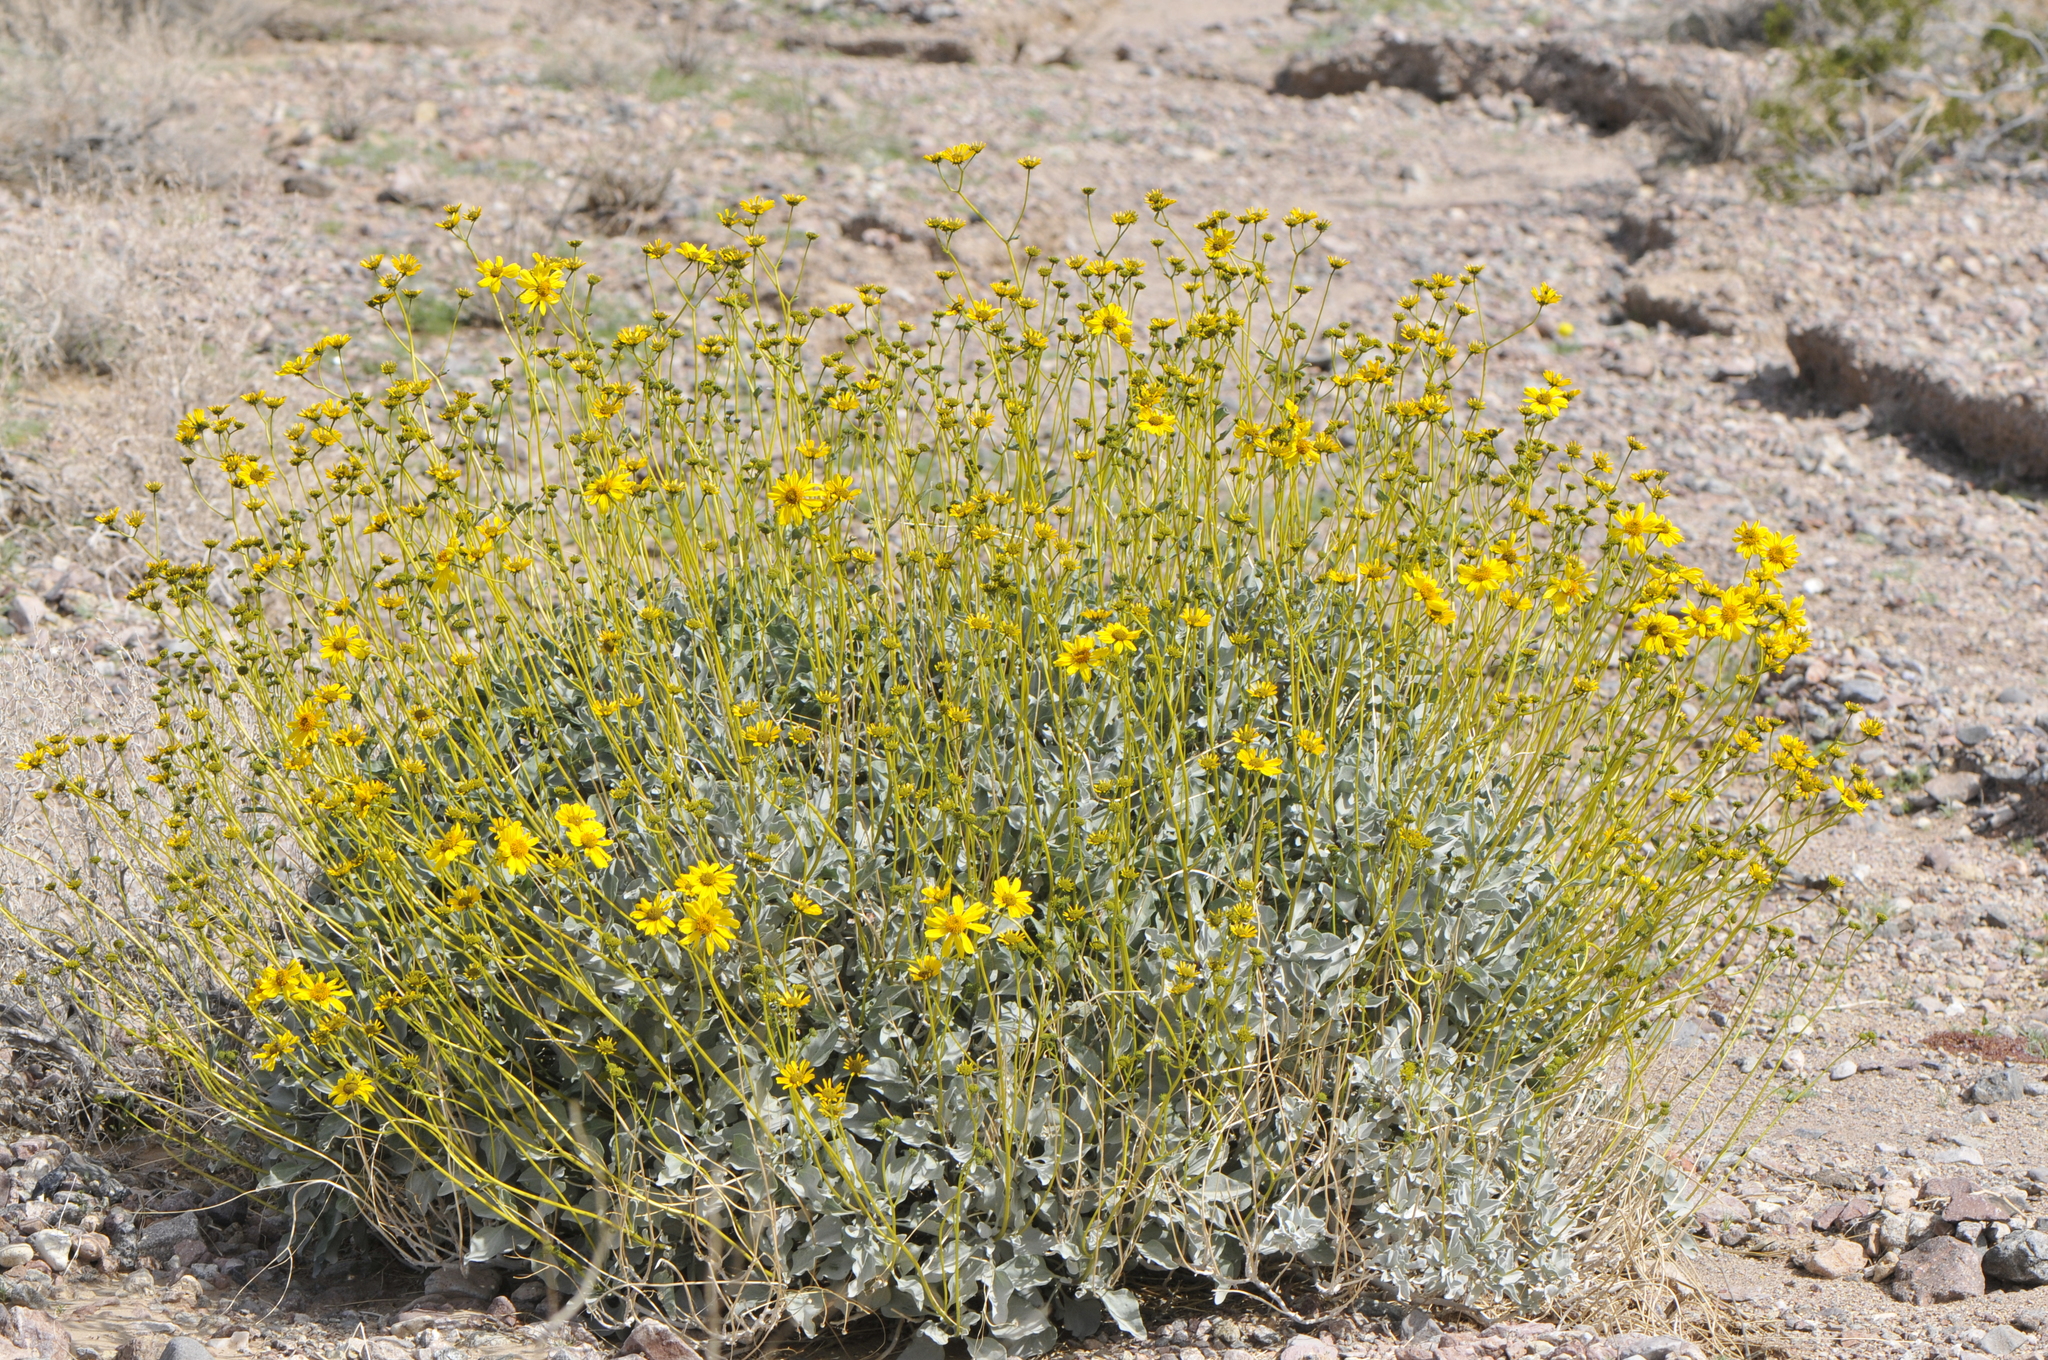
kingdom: Plantae
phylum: Tracheophyta
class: Magnoliopsida
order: Asterales
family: Asteraceae
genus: Encelia
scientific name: Encelia farinosa
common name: Brittlebush
